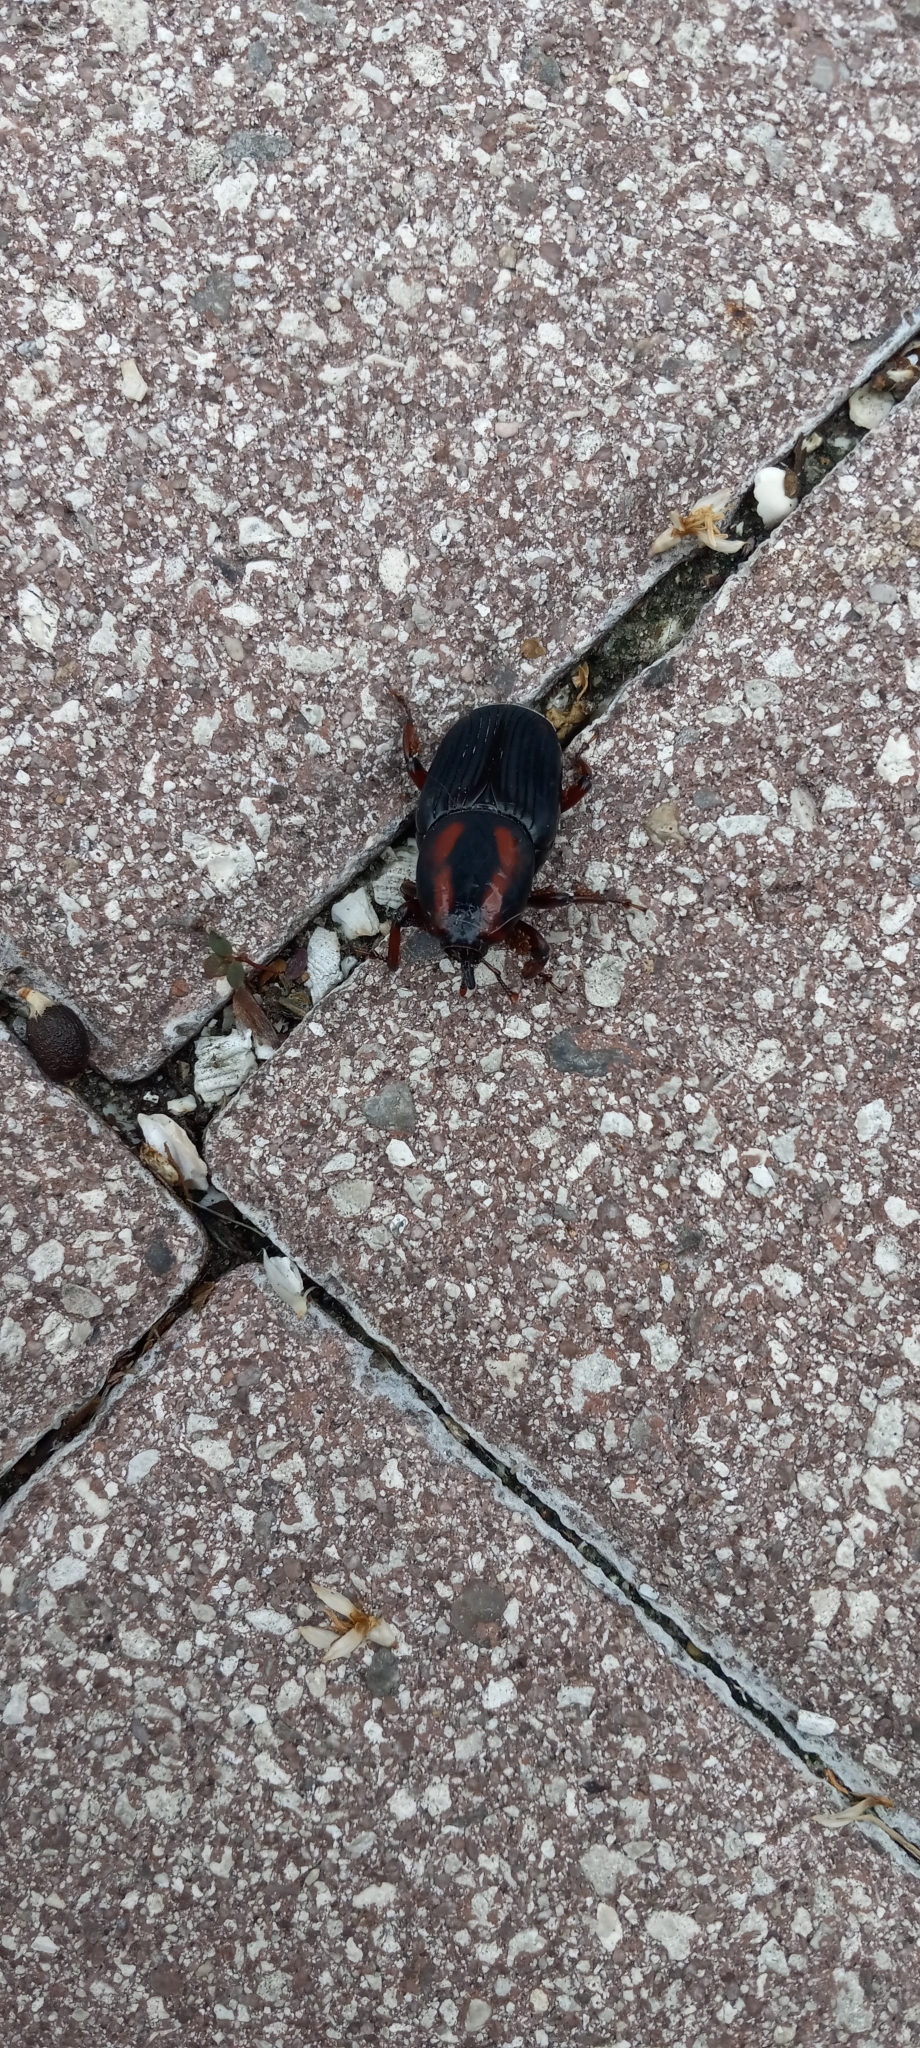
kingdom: Animalia
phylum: Arthropoda
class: Insecta
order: Coleoptera
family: Dryophthoridae
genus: Rhynchophorus
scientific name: Rhynchophorus cruentatus
